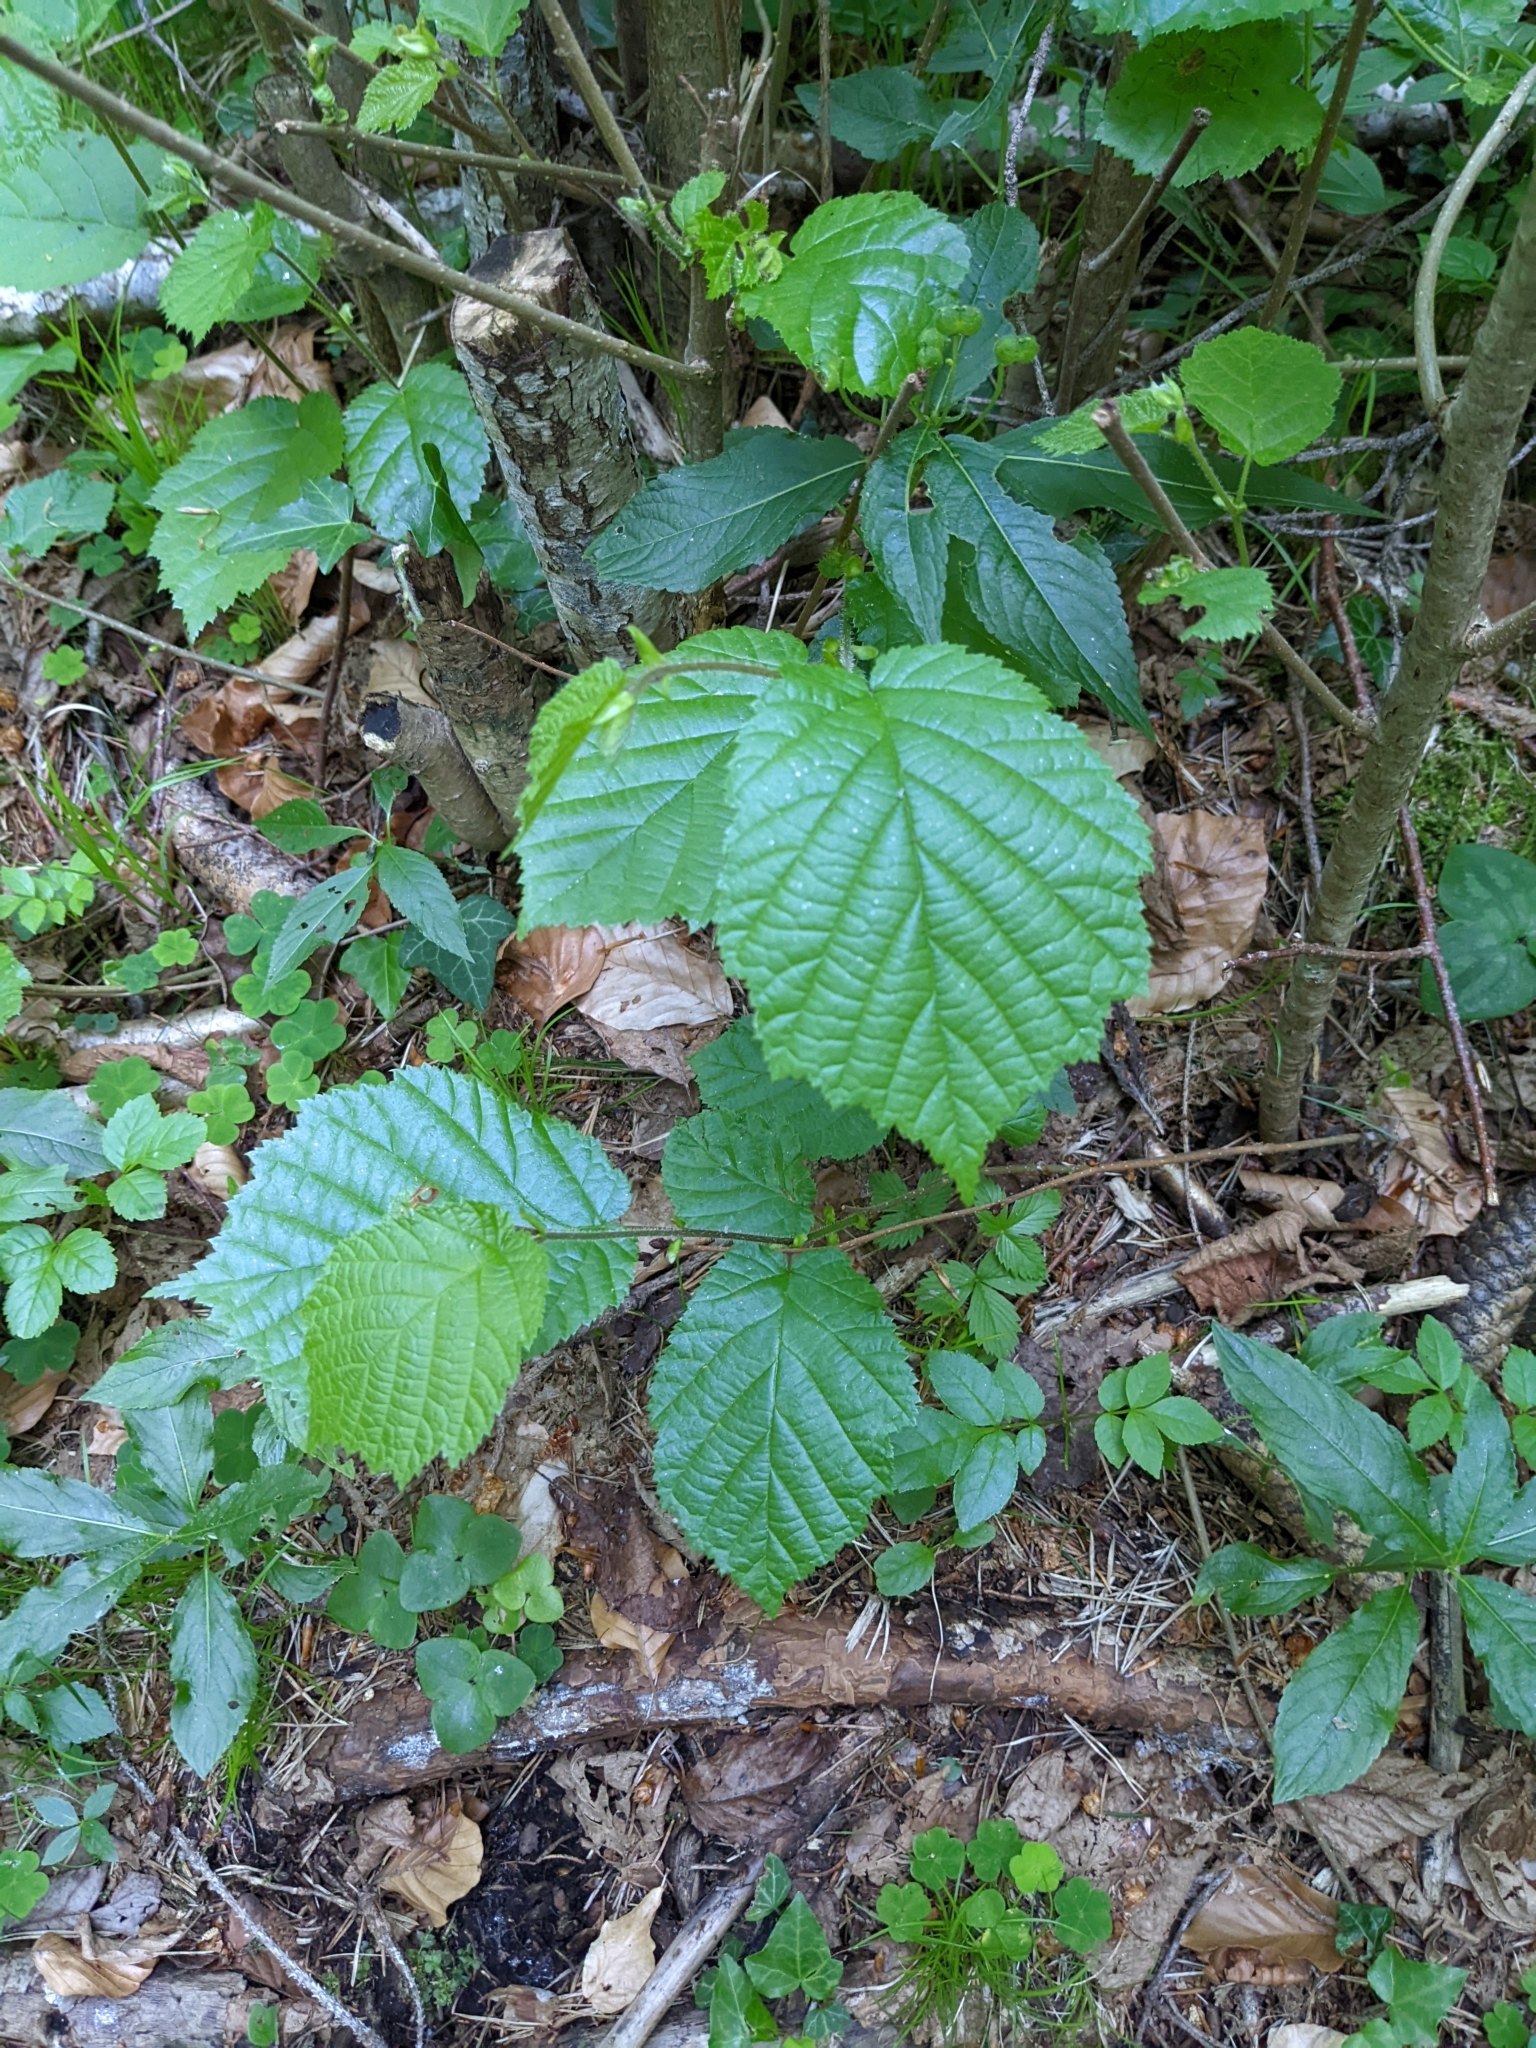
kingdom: Plantae
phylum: Tracheophyta
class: Magnoliopsida
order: Fagales
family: Betulaceae
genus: Corylus
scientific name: Corylus avellana
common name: European hazel
